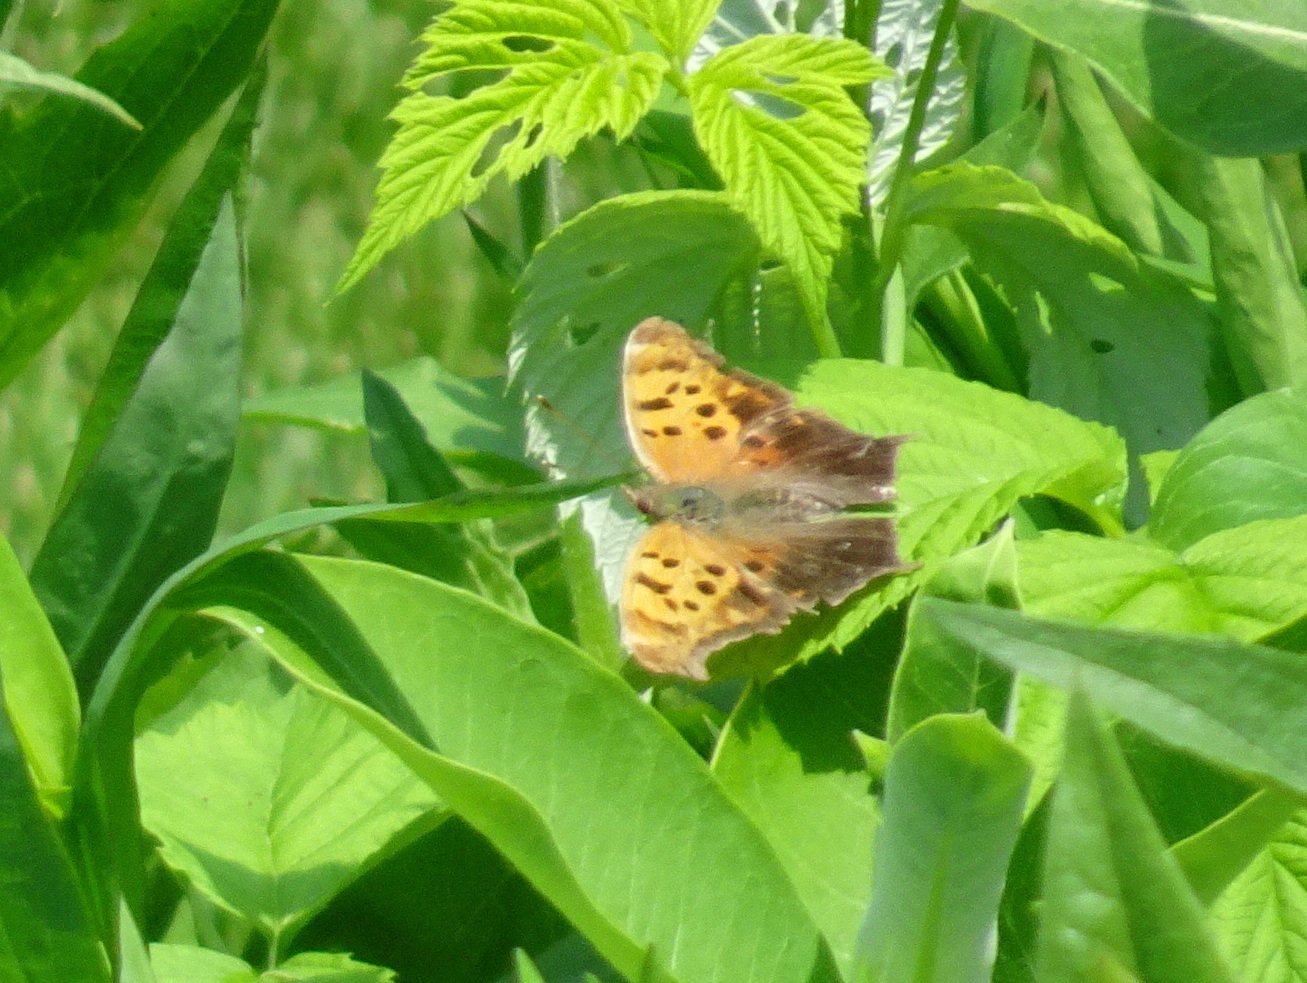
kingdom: Animalia
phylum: Arthropoda
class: Insecta
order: Lepidoptera
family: Nymphalidae
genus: Polygonia
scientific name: Polygonia interrogationis
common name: Question mark
